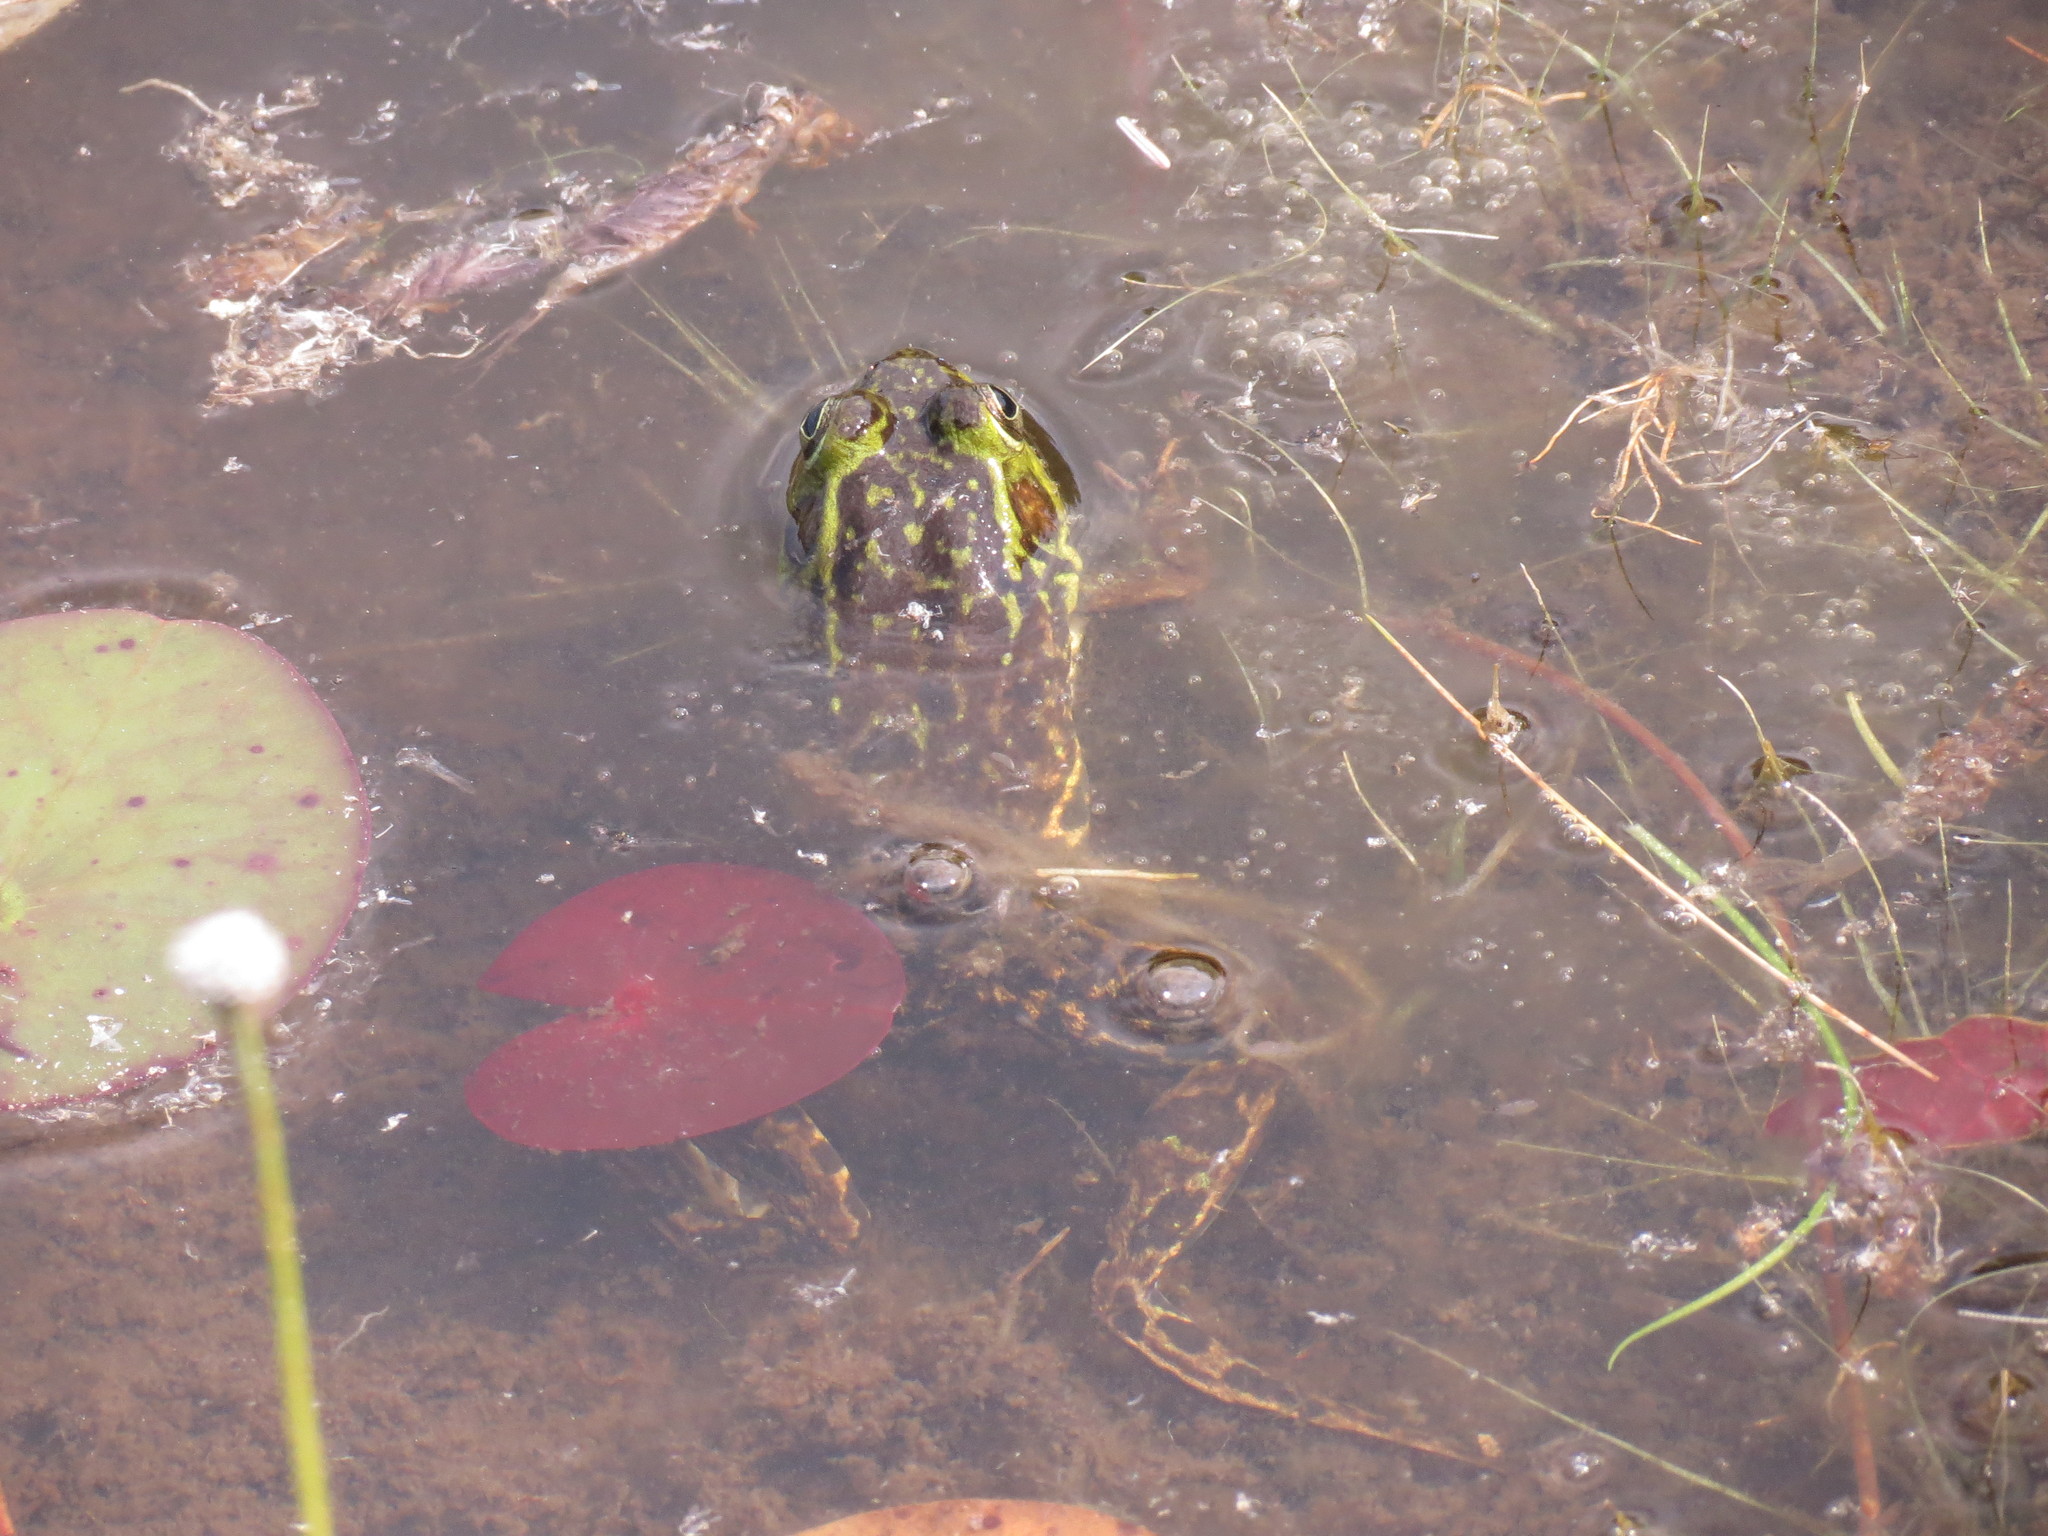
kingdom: Animalia
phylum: Chordata
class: Amphibia
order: Anura
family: Ranidae
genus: Lithobates
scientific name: Lithobates septentrionalis
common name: Mink frog
